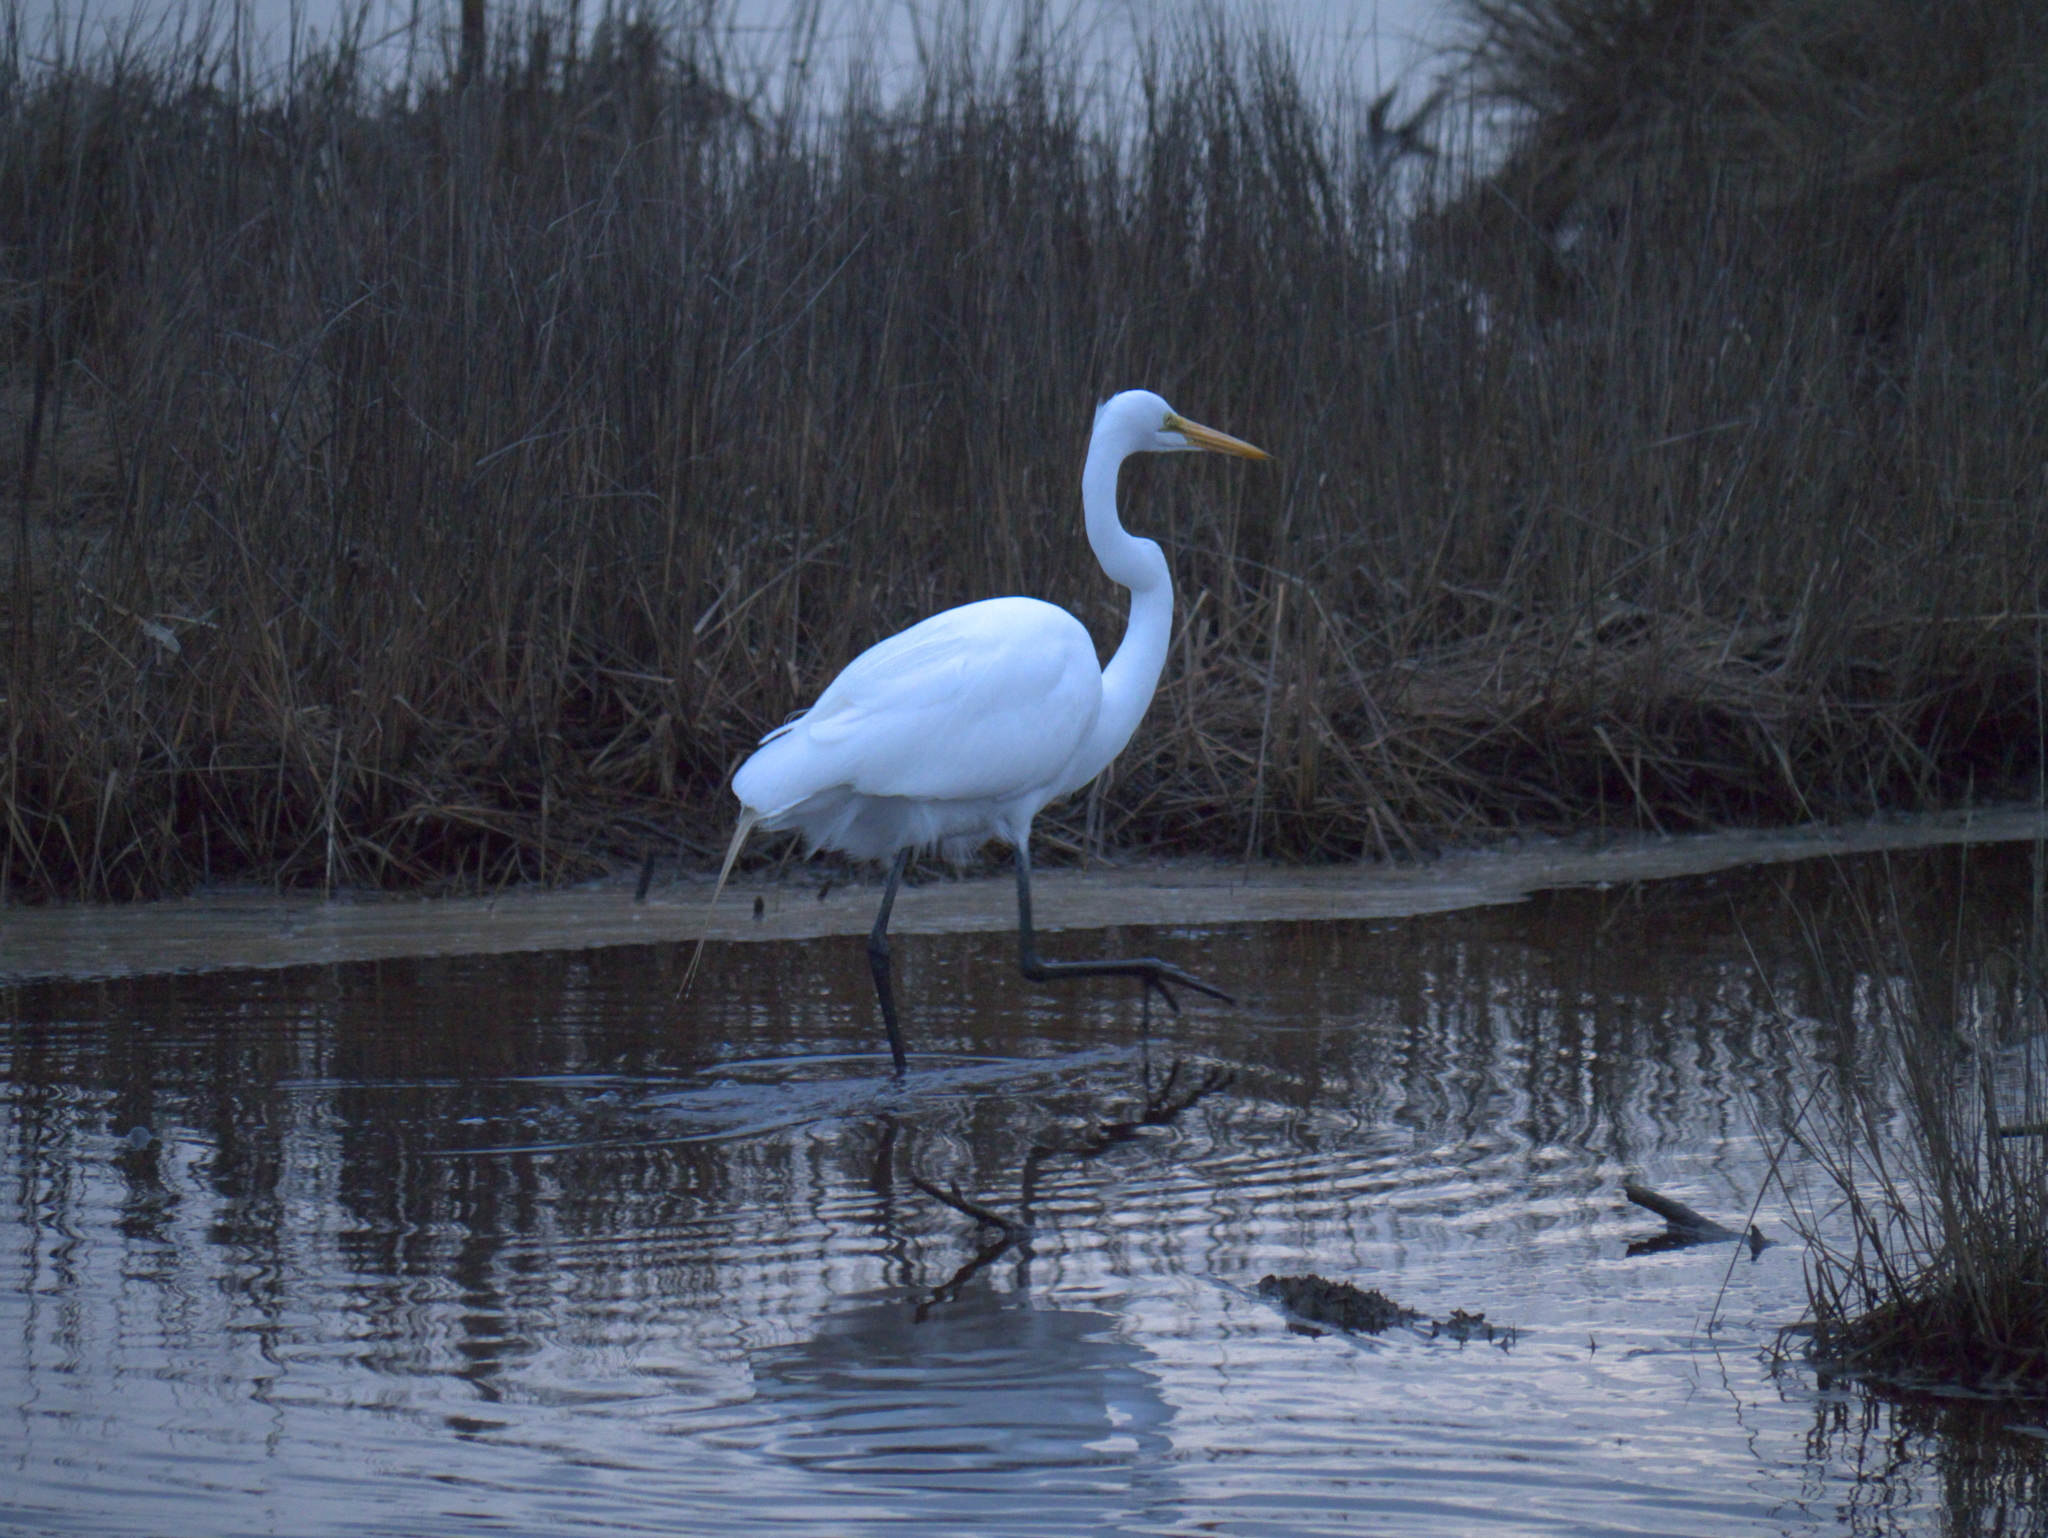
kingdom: Animalia
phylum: Chordata
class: Aves
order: Pelecaniformes
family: Ardeidae
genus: Ardea
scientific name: Ardea alba
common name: Great egret
